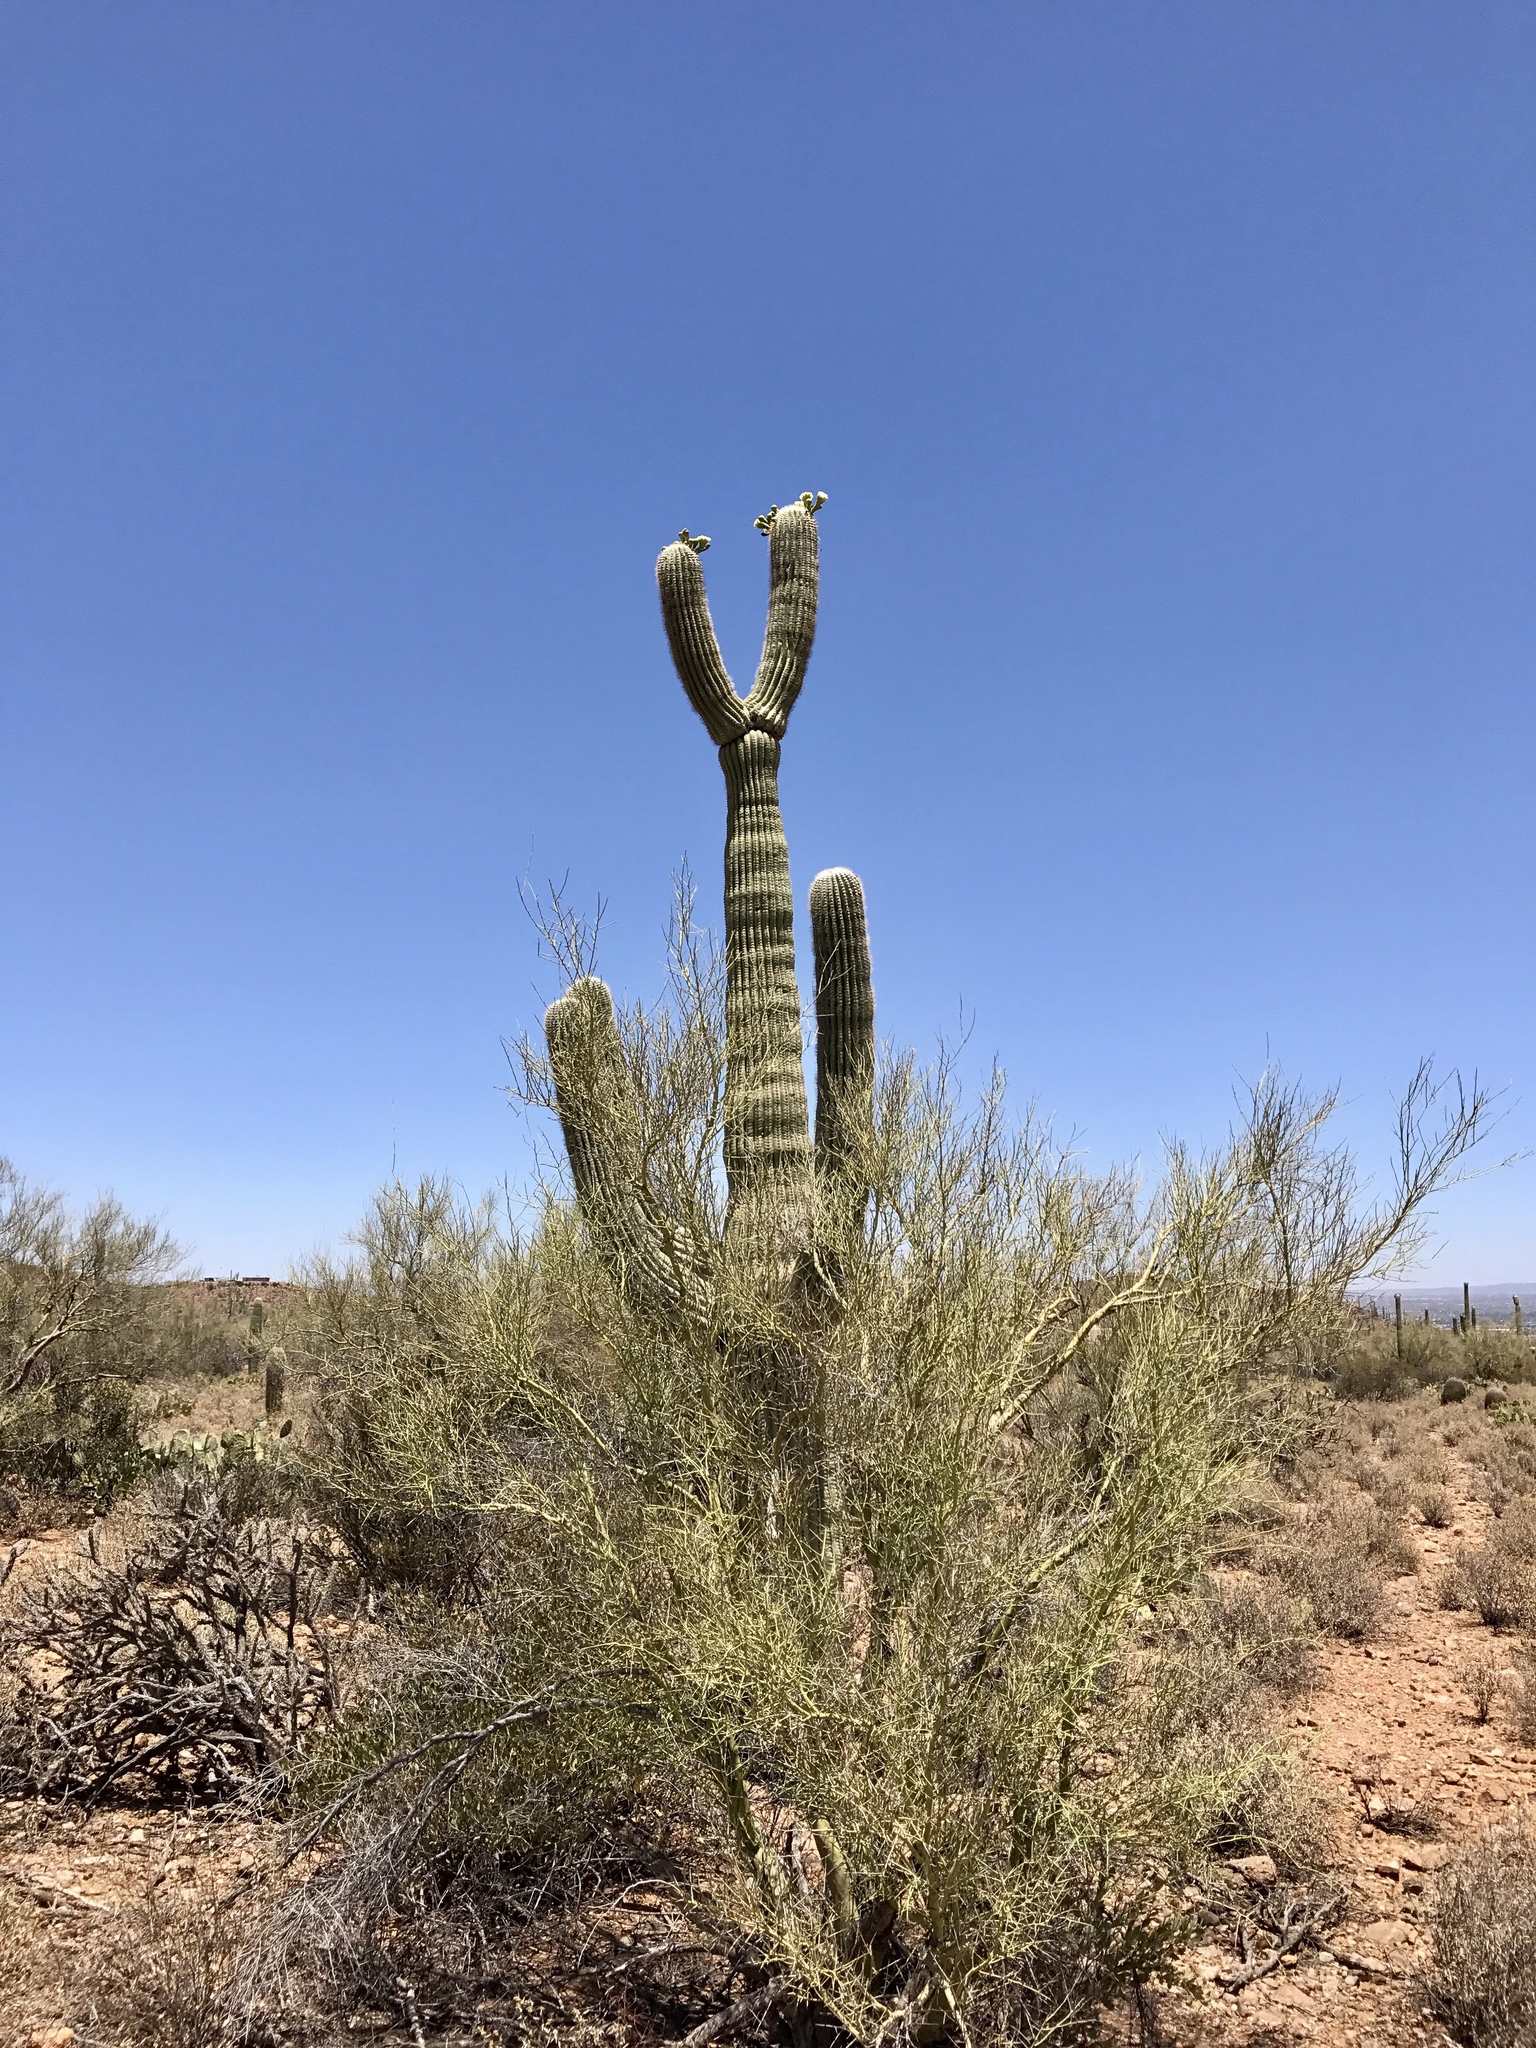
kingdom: Plantae
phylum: Tracheophyta
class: Magnoliopsida
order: Caryophyllales
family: Cactaceae
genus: Carnegiea
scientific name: Carnegiea gigantea
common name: Saguaro
